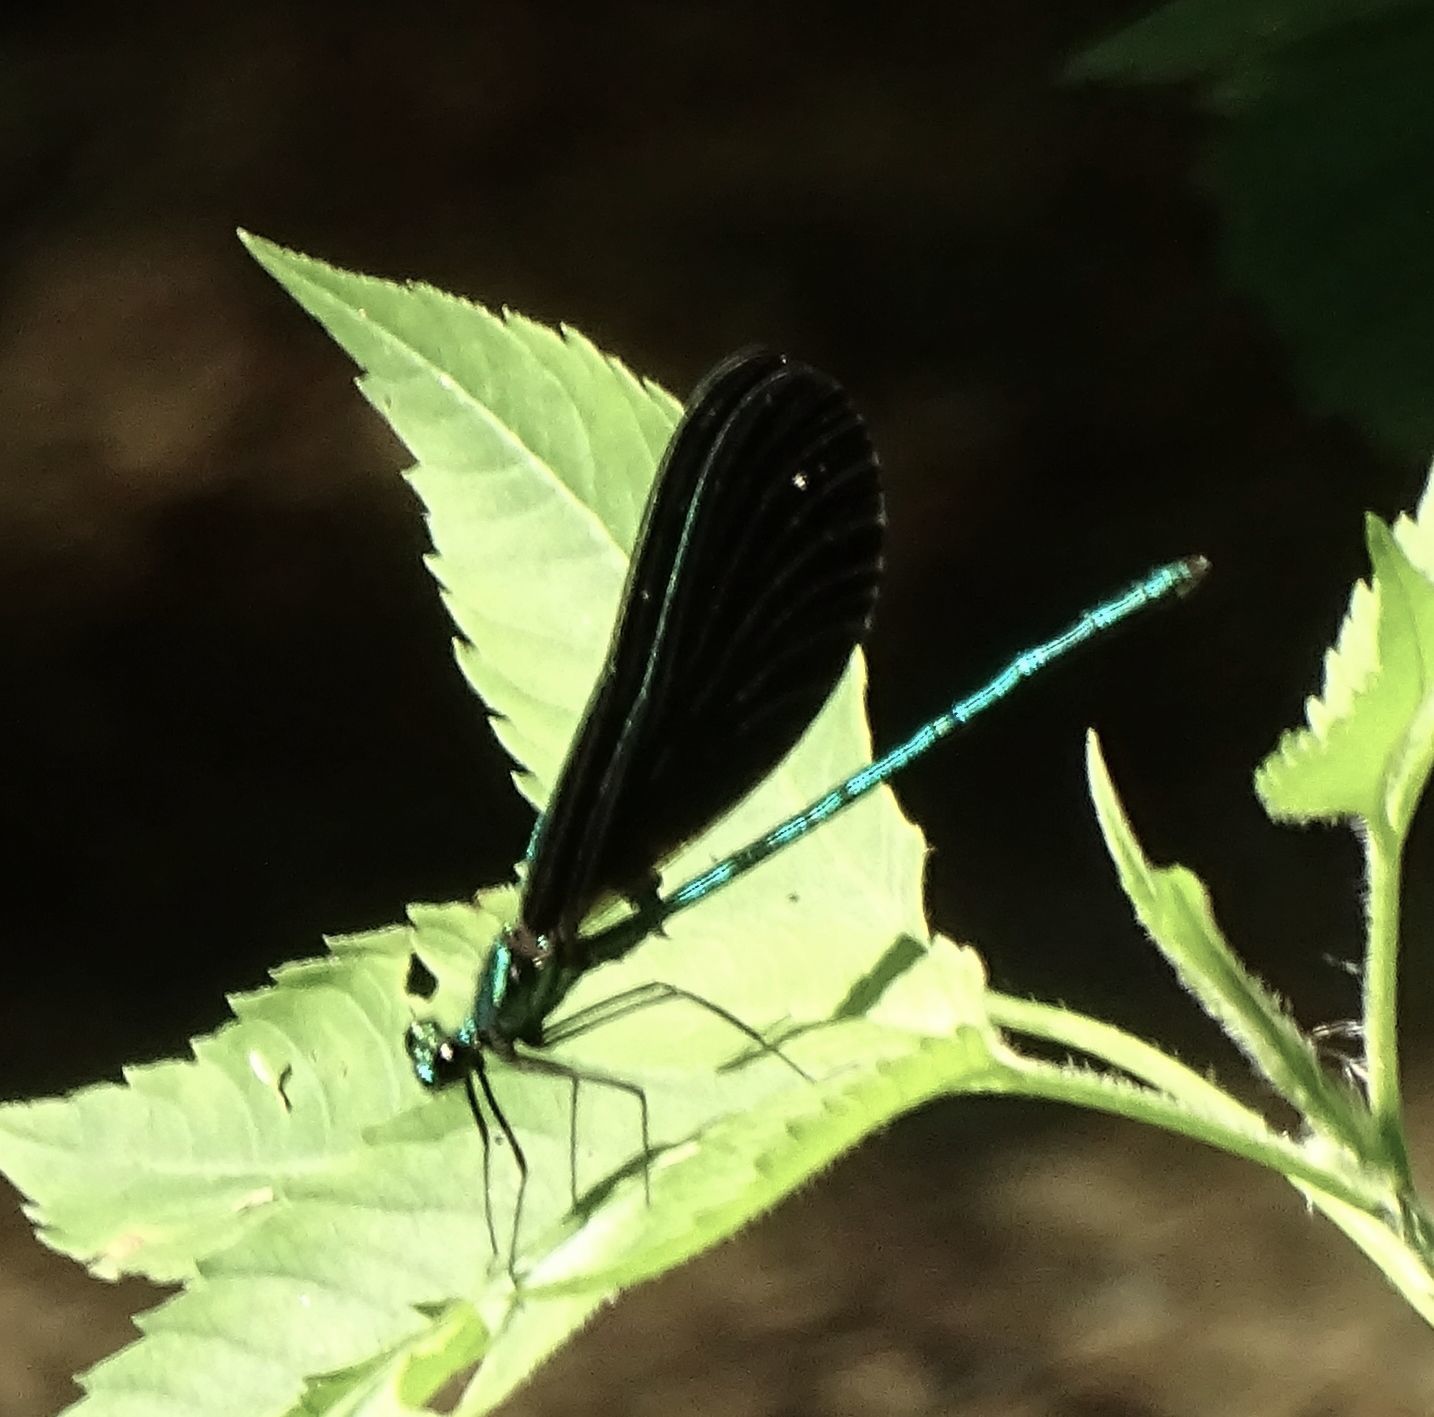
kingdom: Animalia
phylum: Arthropoda
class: Insecta
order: Odonata
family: Calopterygidae
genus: Calopteryx
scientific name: Calopteryx maculata
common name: Ebony jewelwing
